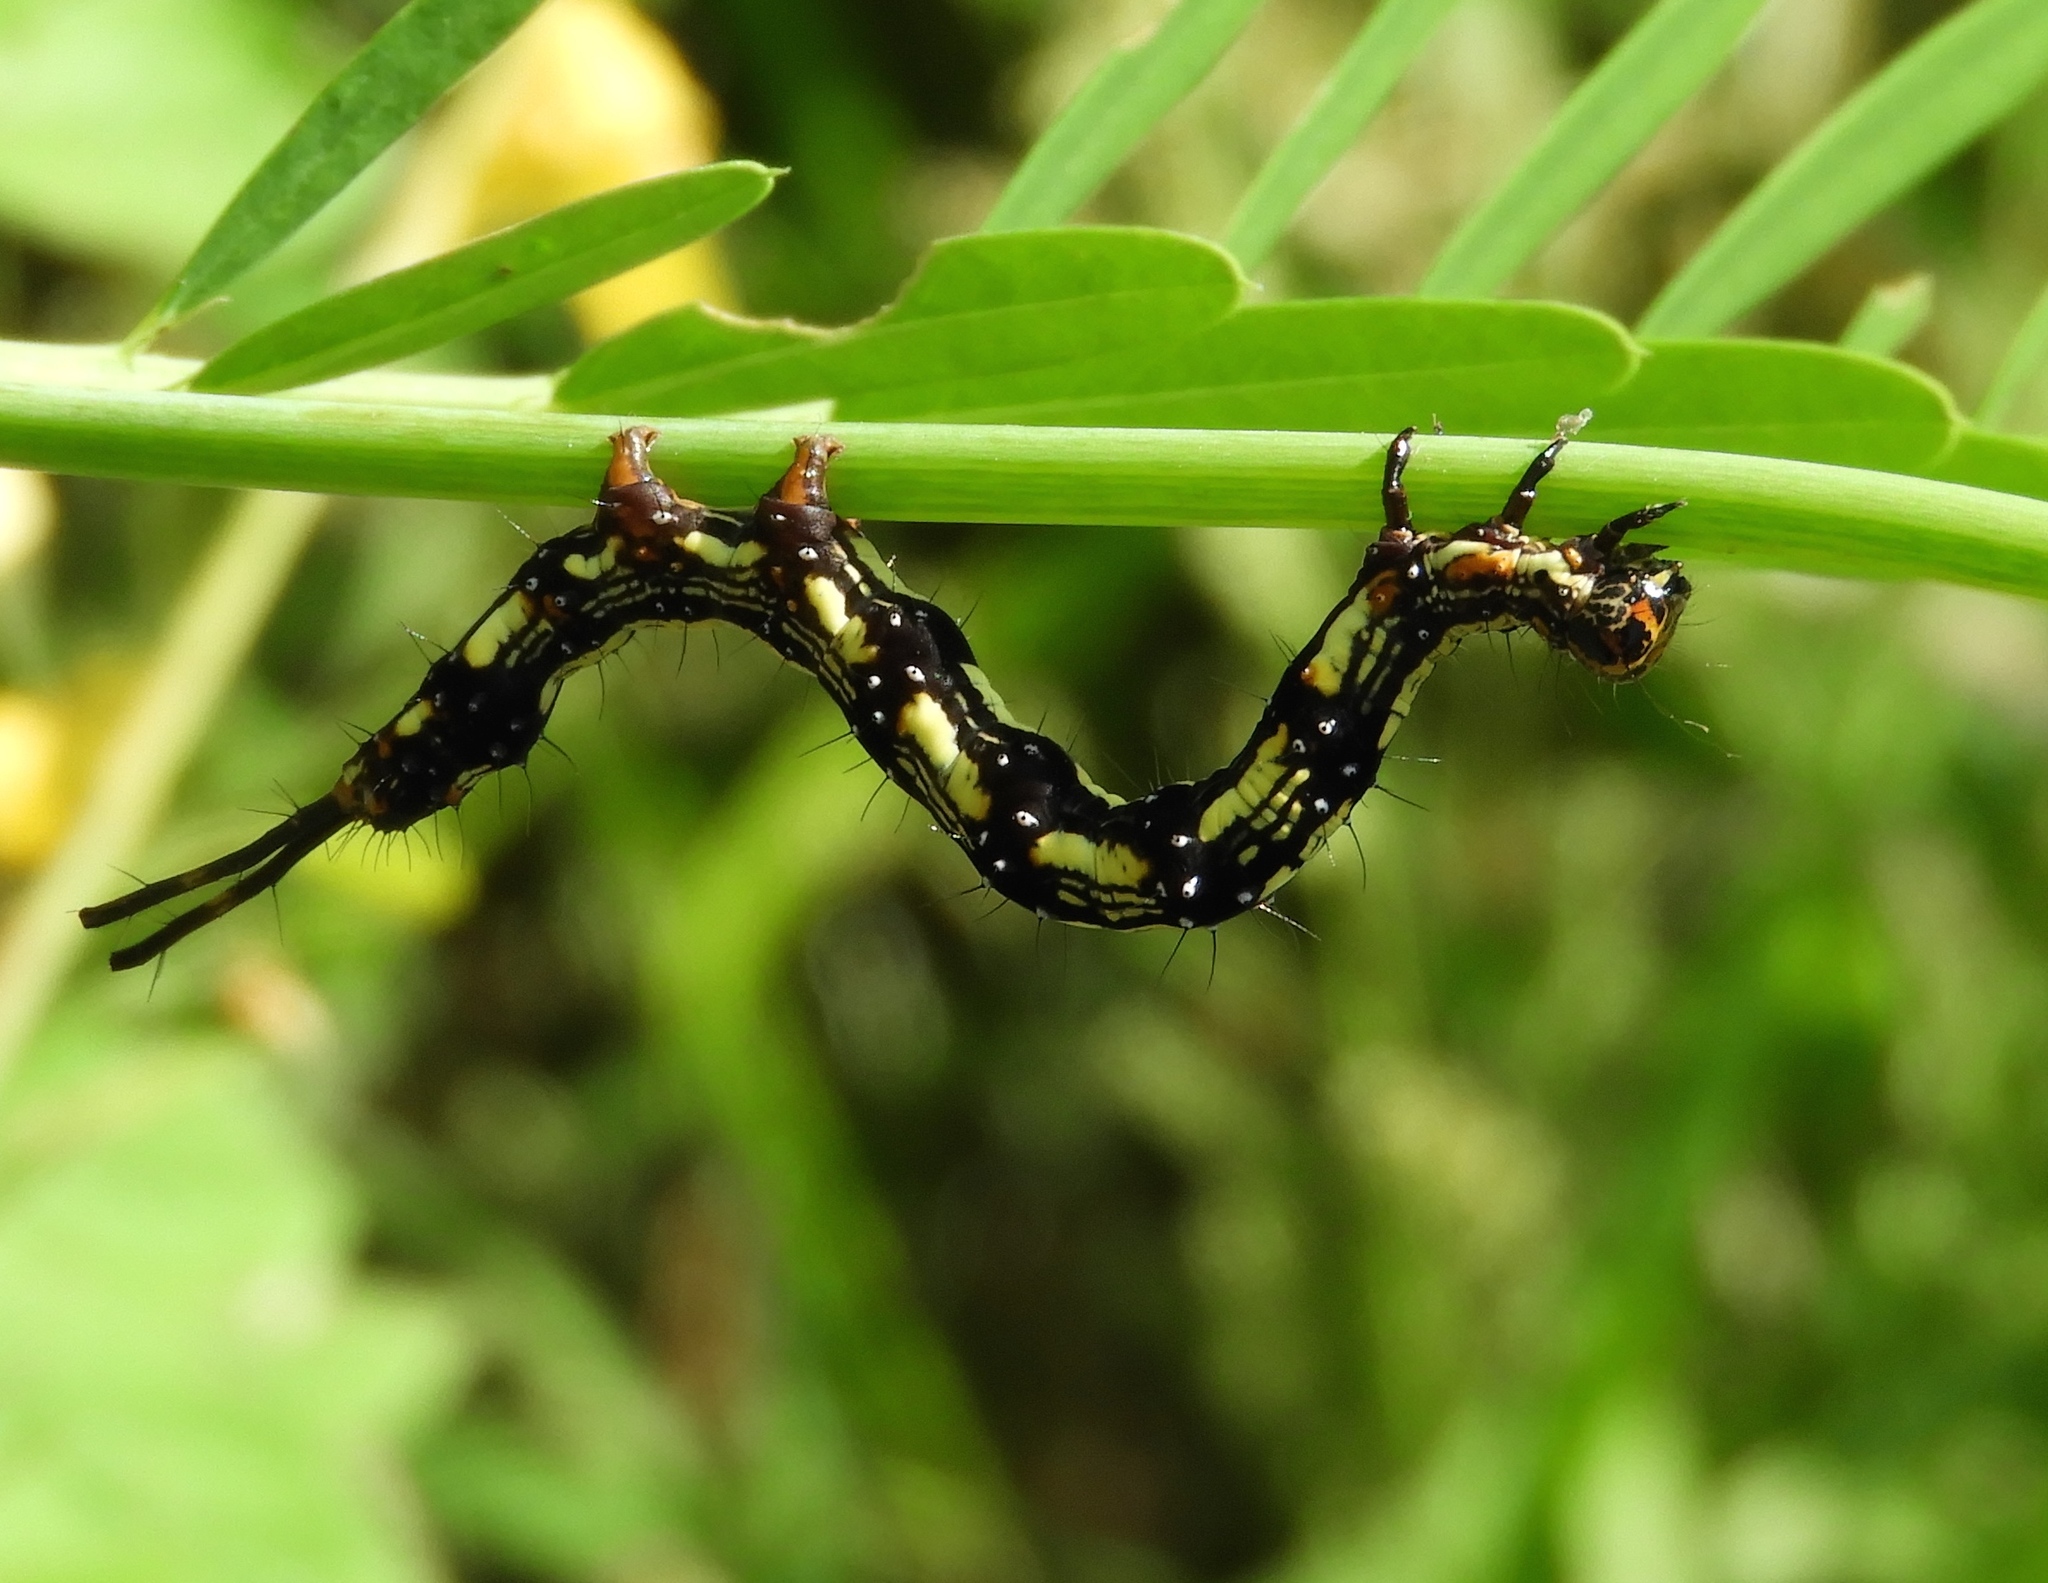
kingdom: Animalia
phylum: Arthropoda
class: Insecta
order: Lepidoptera
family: Erebidae
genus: Selenisa
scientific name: Selenisa sueroides
